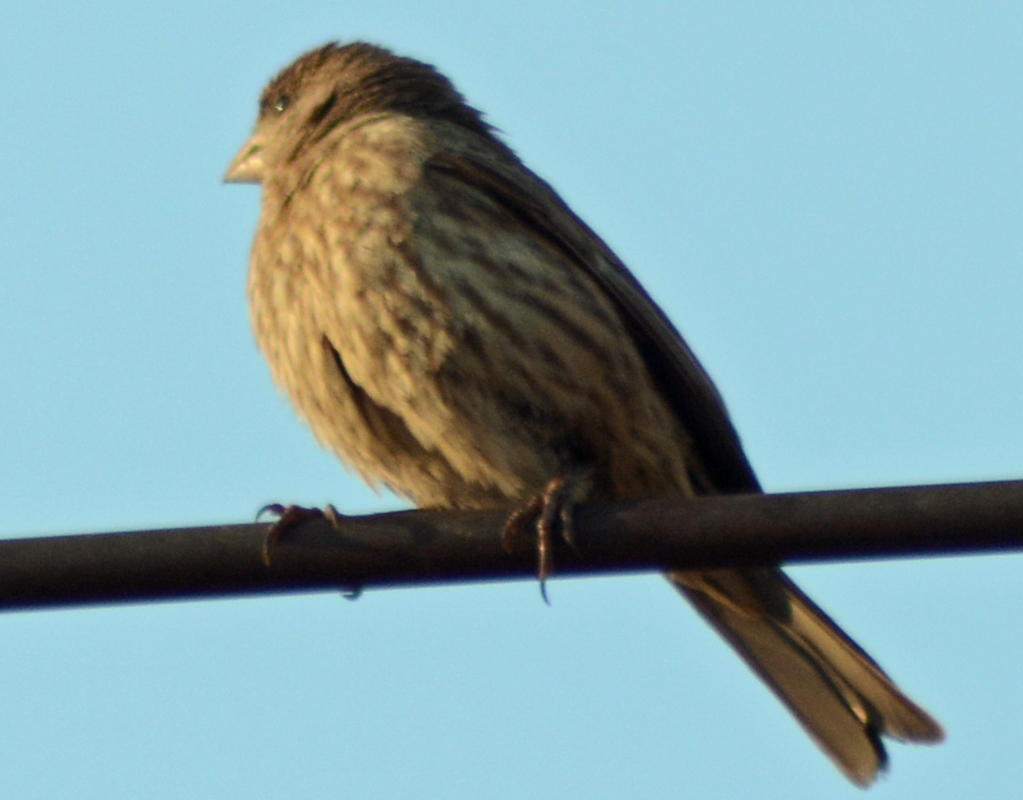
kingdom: Animalia
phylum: Chordata
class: Aves
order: Passeriformes
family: Fringillidae
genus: Haemorhous
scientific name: Haemorhous mexicanus
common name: House finch
